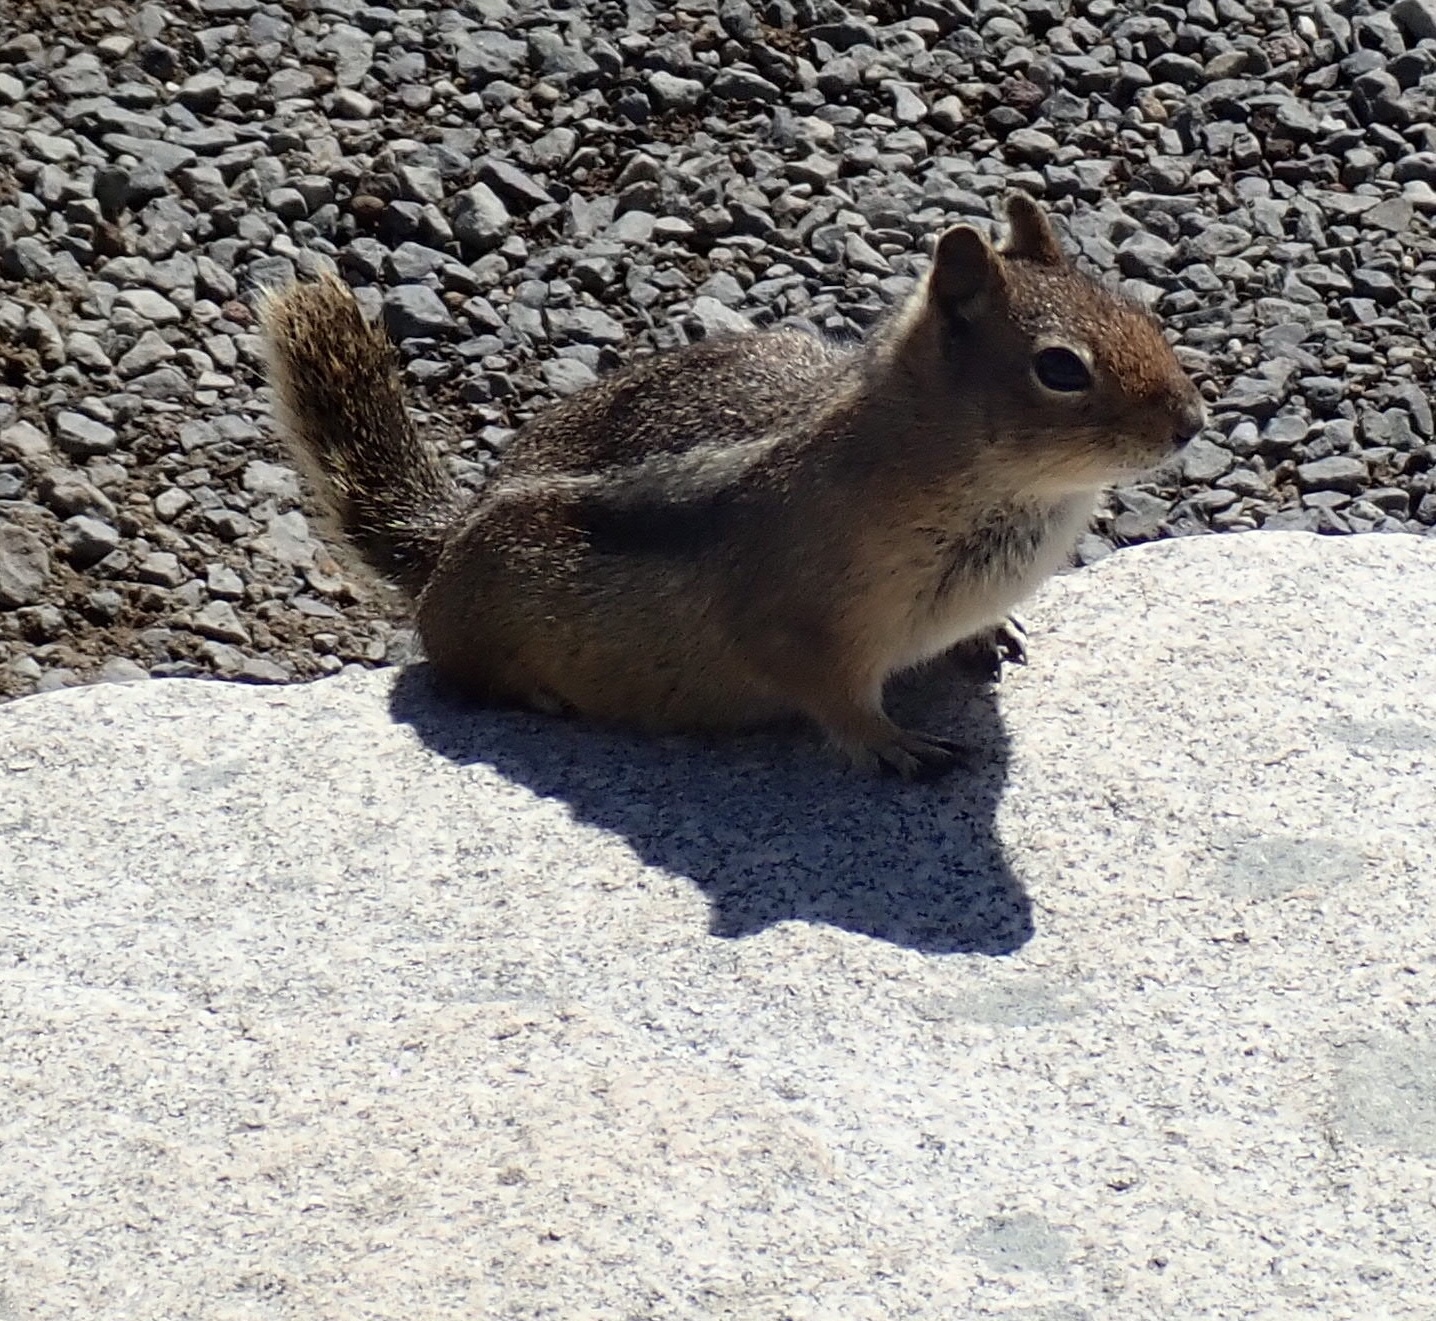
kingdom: Animalia
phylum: Chordata
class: Mammalia
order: Rodentia
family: Sciuridae
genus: Callospermophilus
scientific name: Callospermophilus saturatus
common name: Cascade golden-mantled ground squirrel
